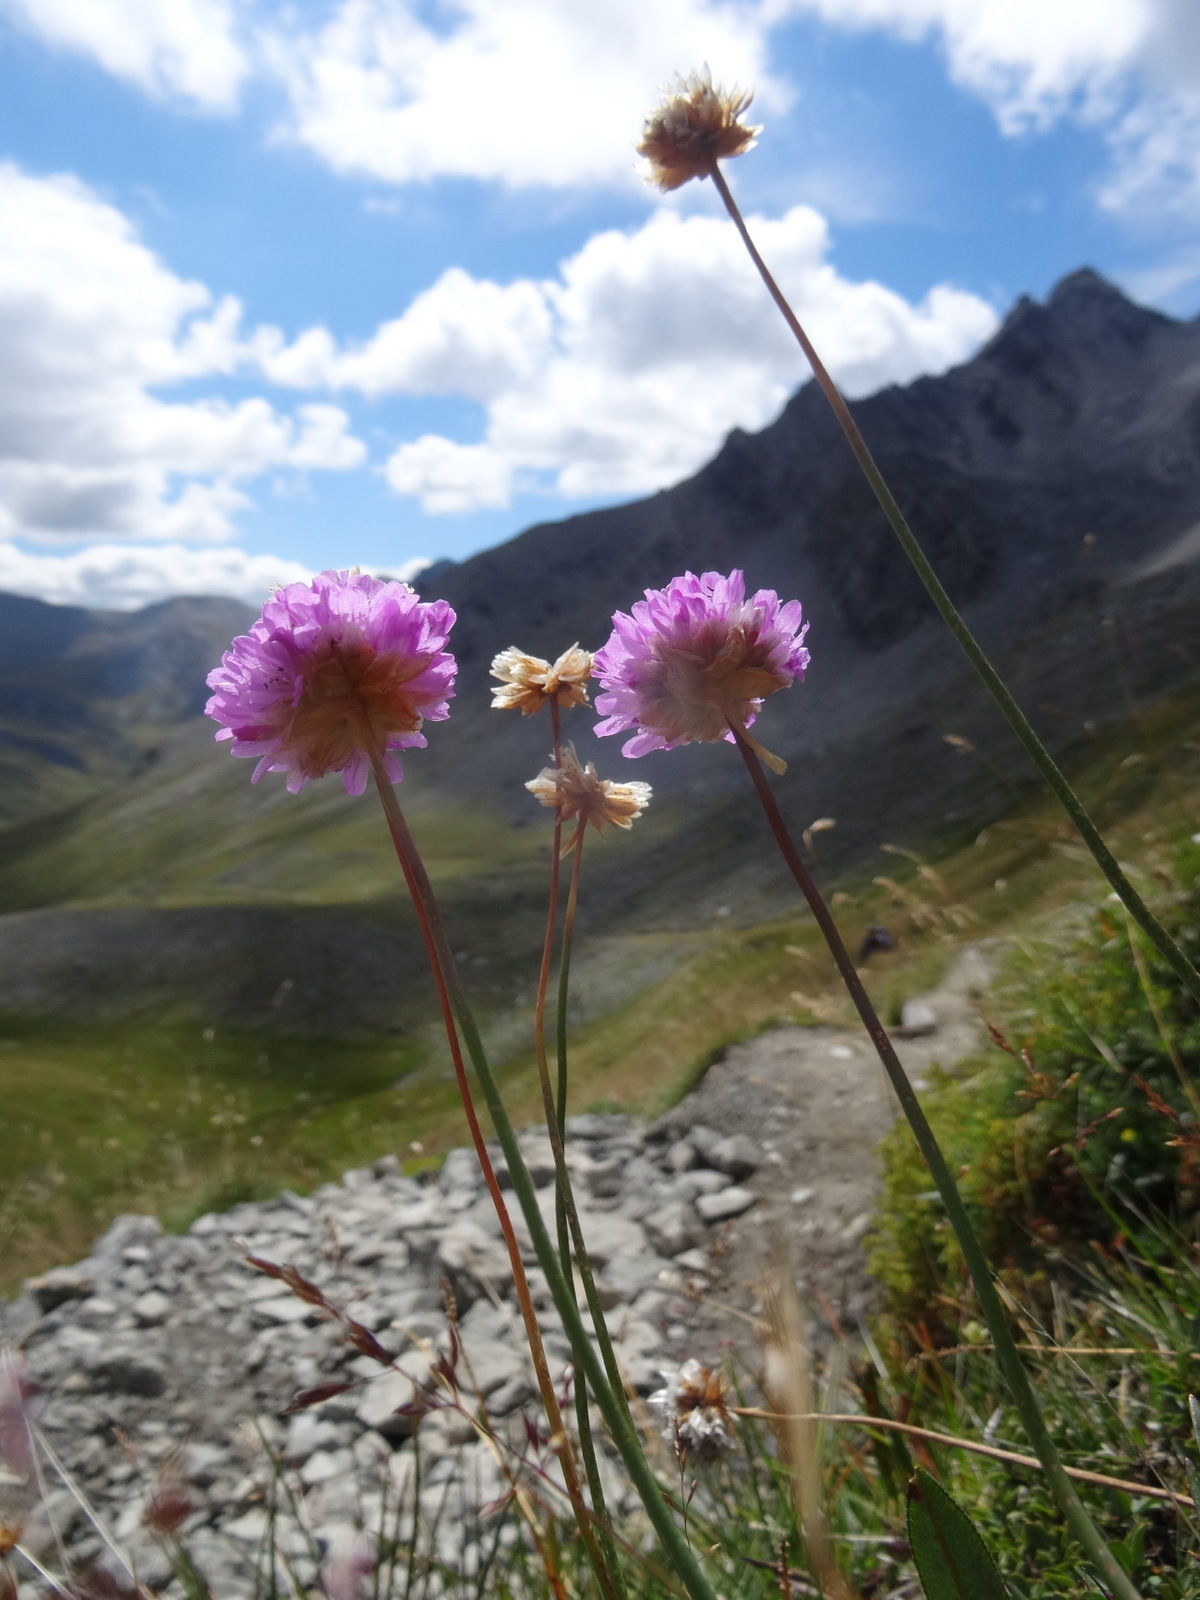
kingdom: Plantae
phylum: Tracheophyta
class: Magnoliopsida
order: Caryophyllales
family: Plumbaginaceae
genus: Armeria
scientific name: Armeria alpina
